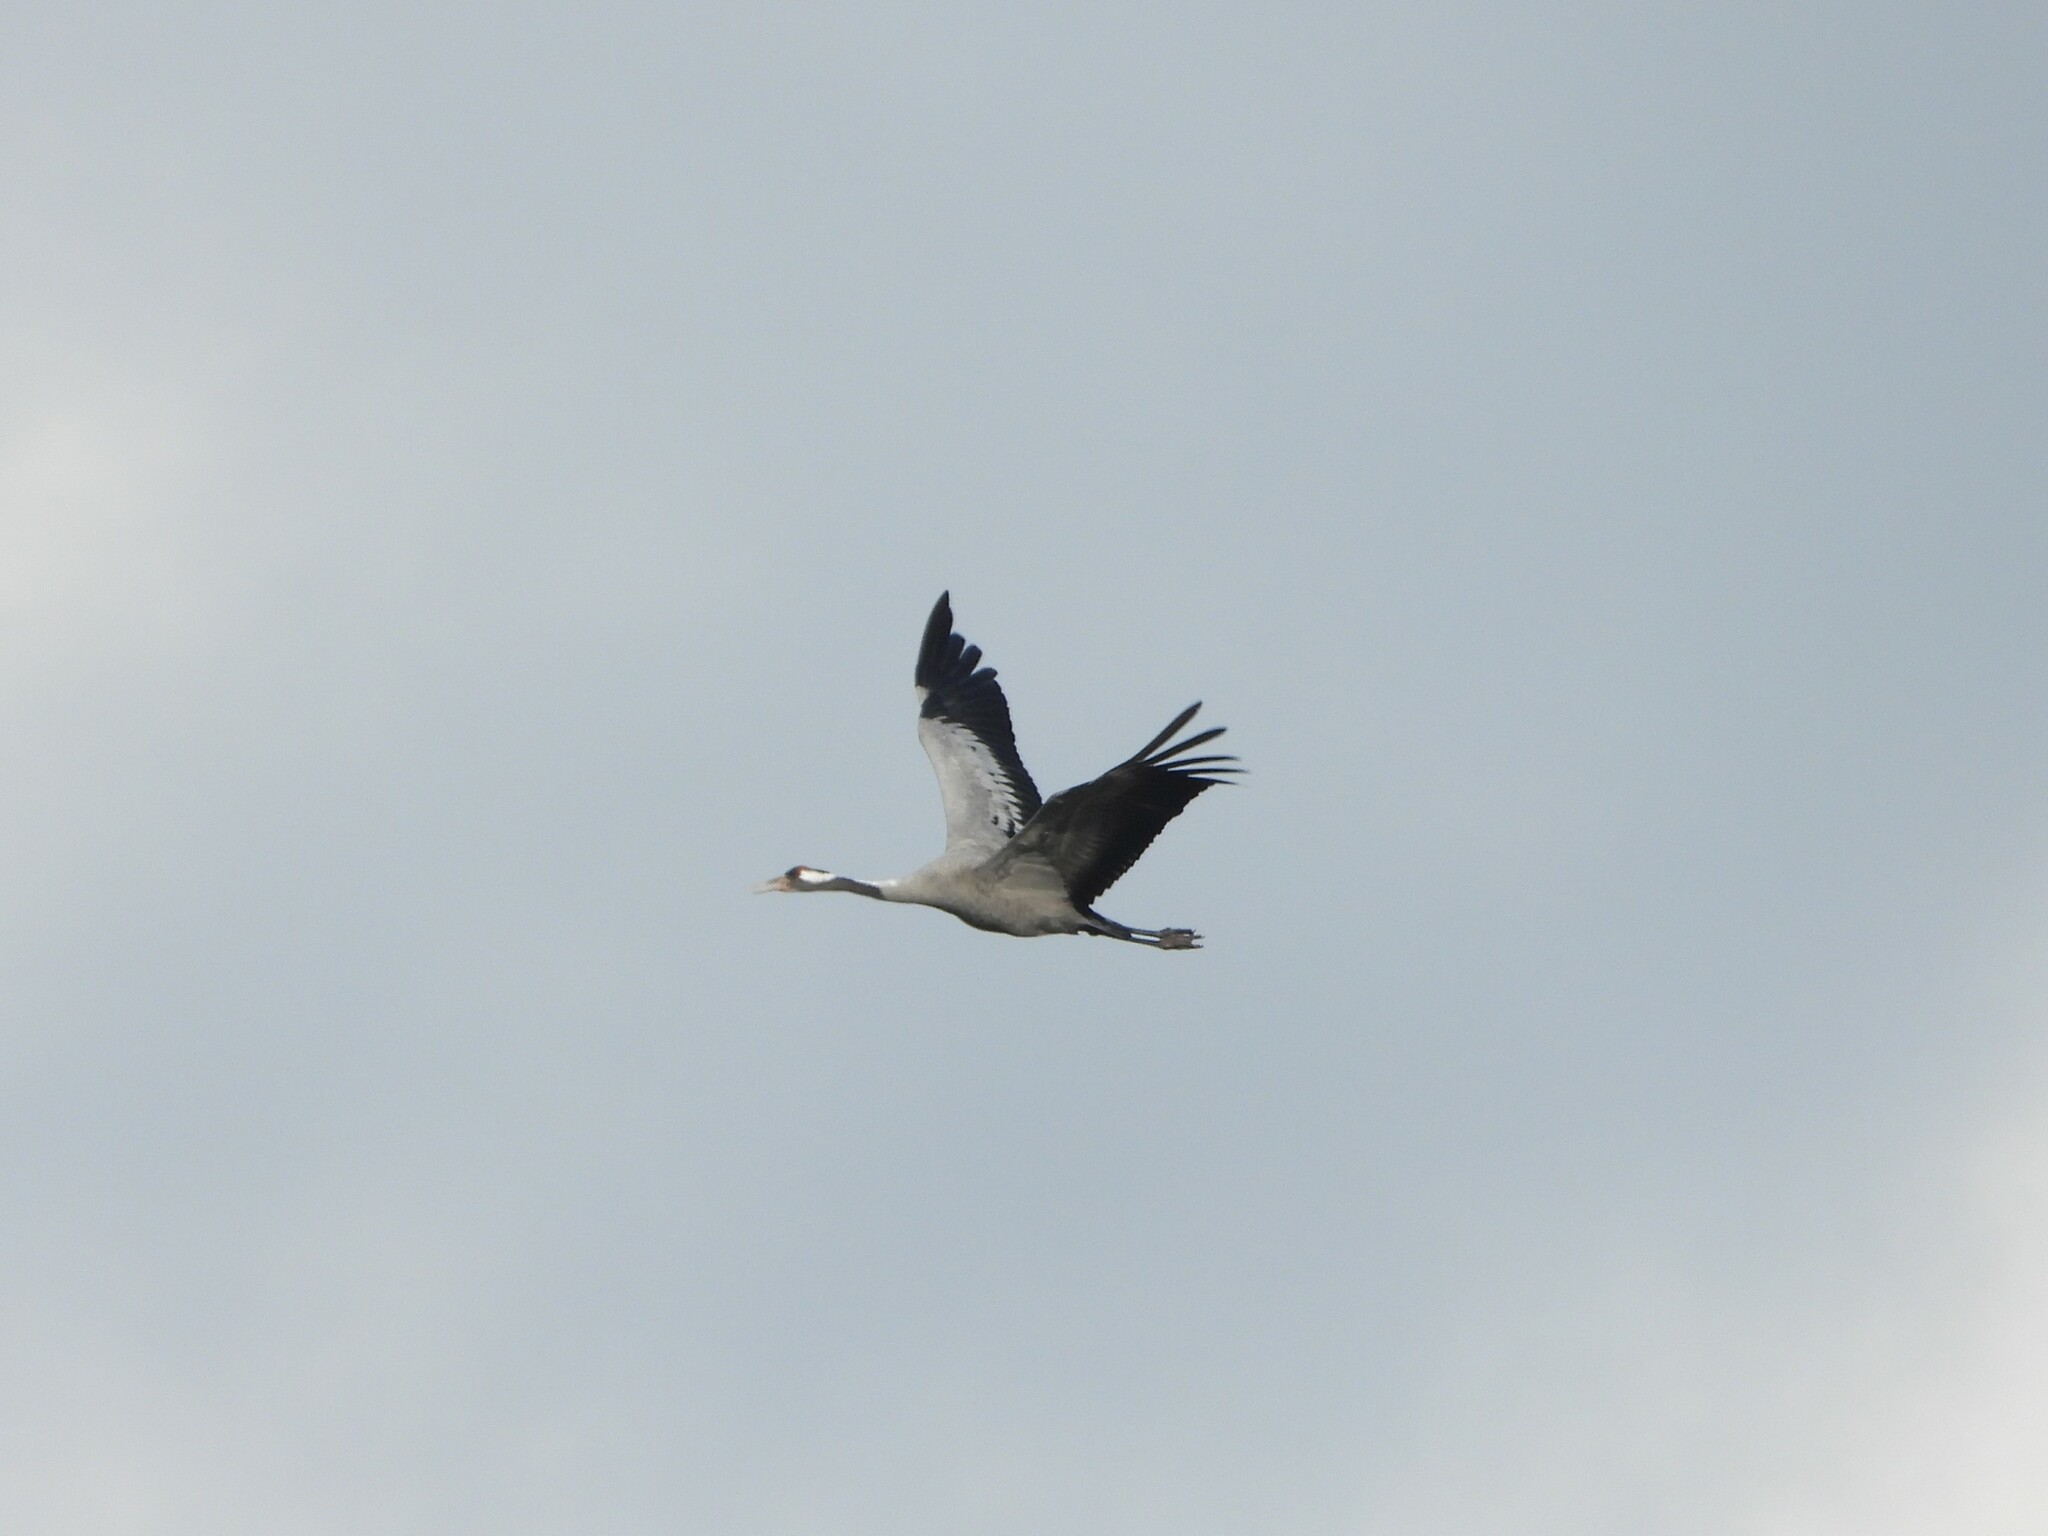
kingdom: Animalia
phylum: Chordata
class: Aves
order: Gruiformes
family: Gruidae
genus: Grus
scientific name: Grus grus
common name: Common crane
